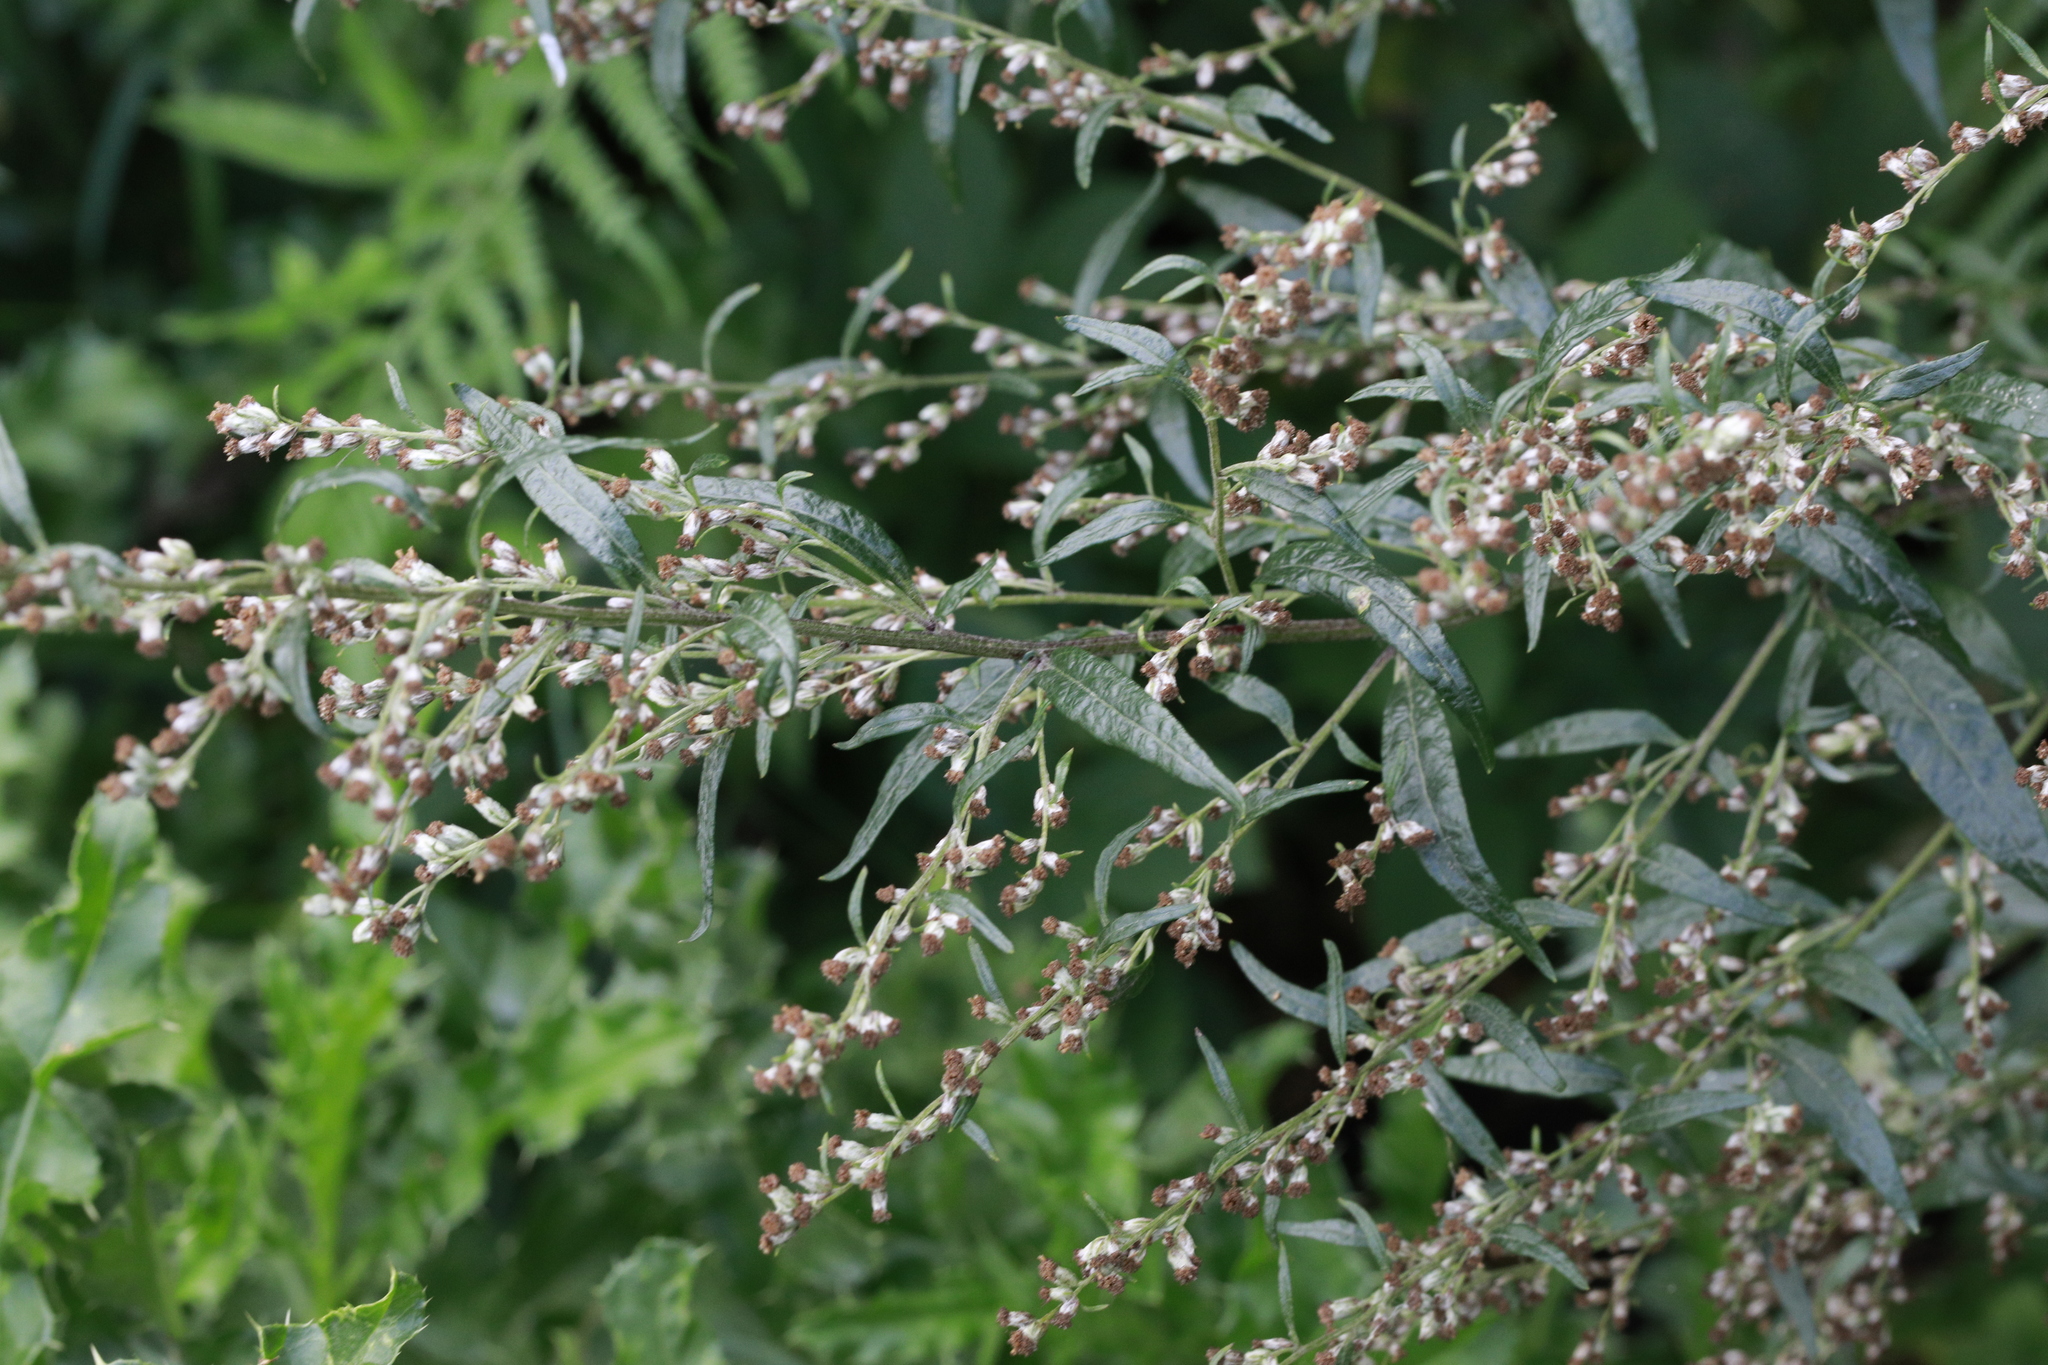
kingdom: Plantae
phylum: Tracheophyta
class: Magnoliopsida
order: Asterales
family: Asteraceae
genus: Artemisia
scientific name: Artemisia vulgaris
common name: Mugwort
